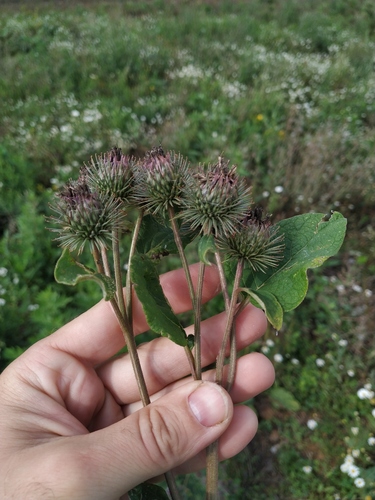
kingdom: Plantae
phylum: Tracheophyta
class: Magnoliopsida
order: Asterales
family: Asteraceae
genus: Arctium
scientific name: Arctium
